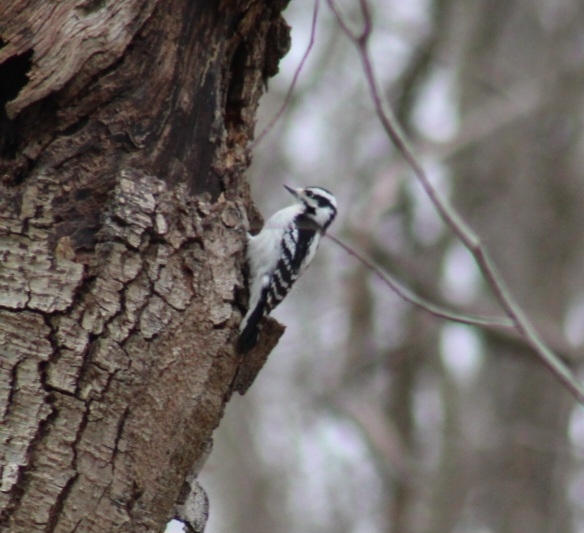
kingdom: Animalia
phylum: Chordata
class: Aves
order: Piciformes
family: Picidae
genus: Dryobates
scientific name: Dryobates pubescens
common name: Downy woodpecker
